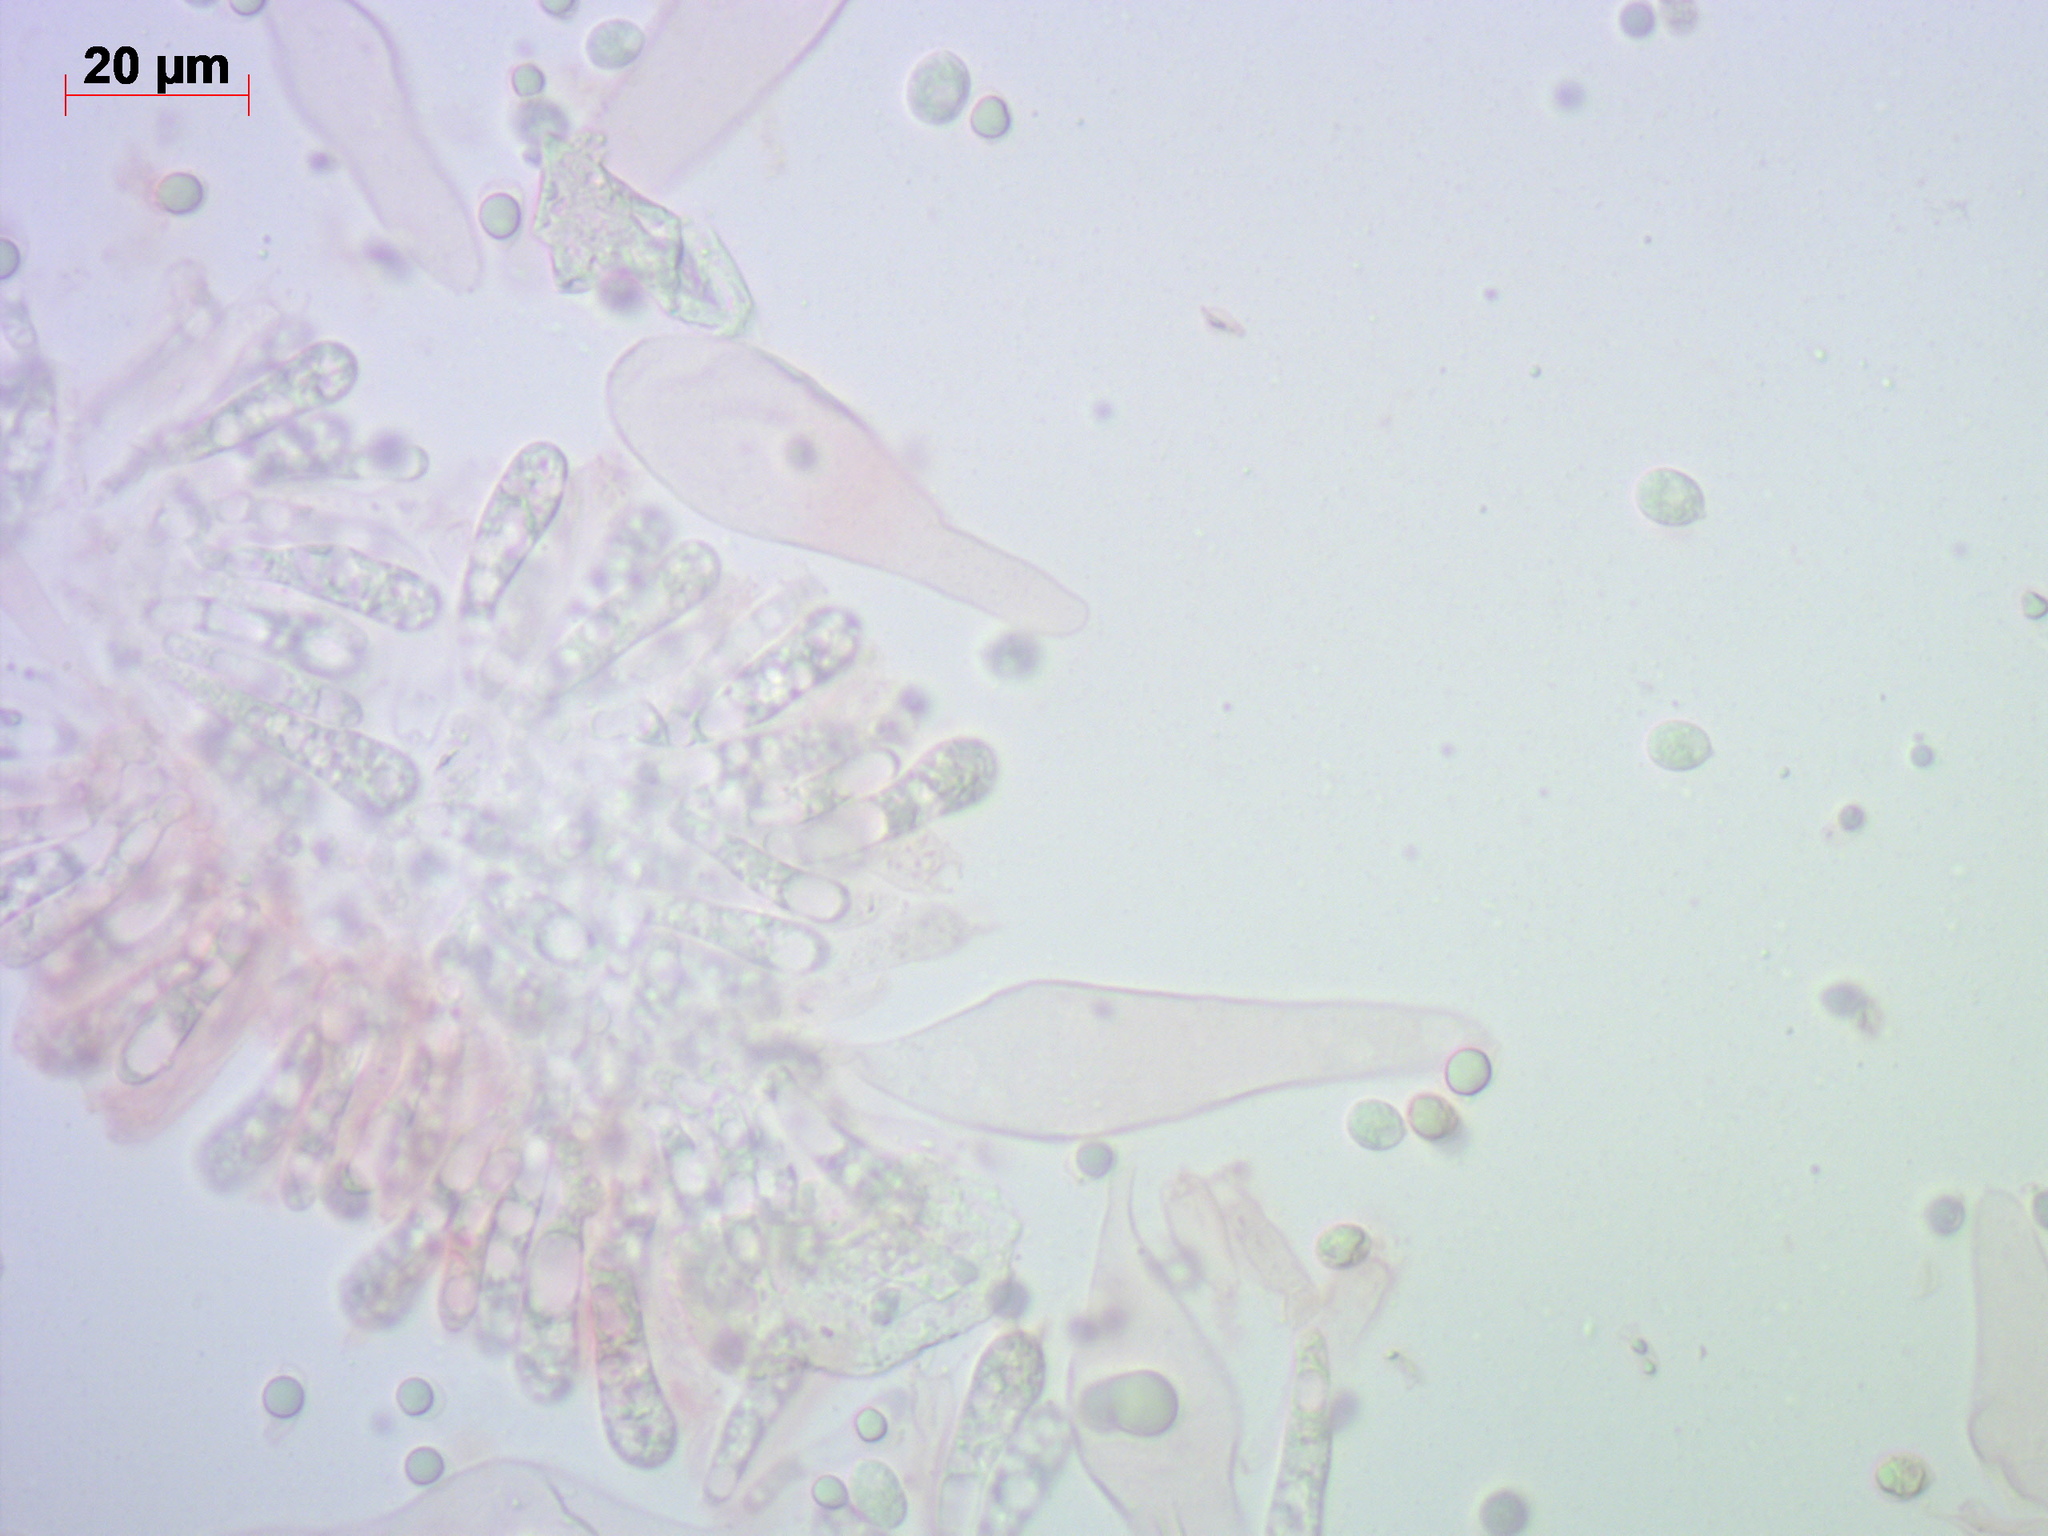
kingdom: Fungi
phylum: Basidiomycota
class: Agaricomycetes
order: Agaricales
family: Mycenaceae
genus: Mycena
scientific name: Mycena algeriensis
